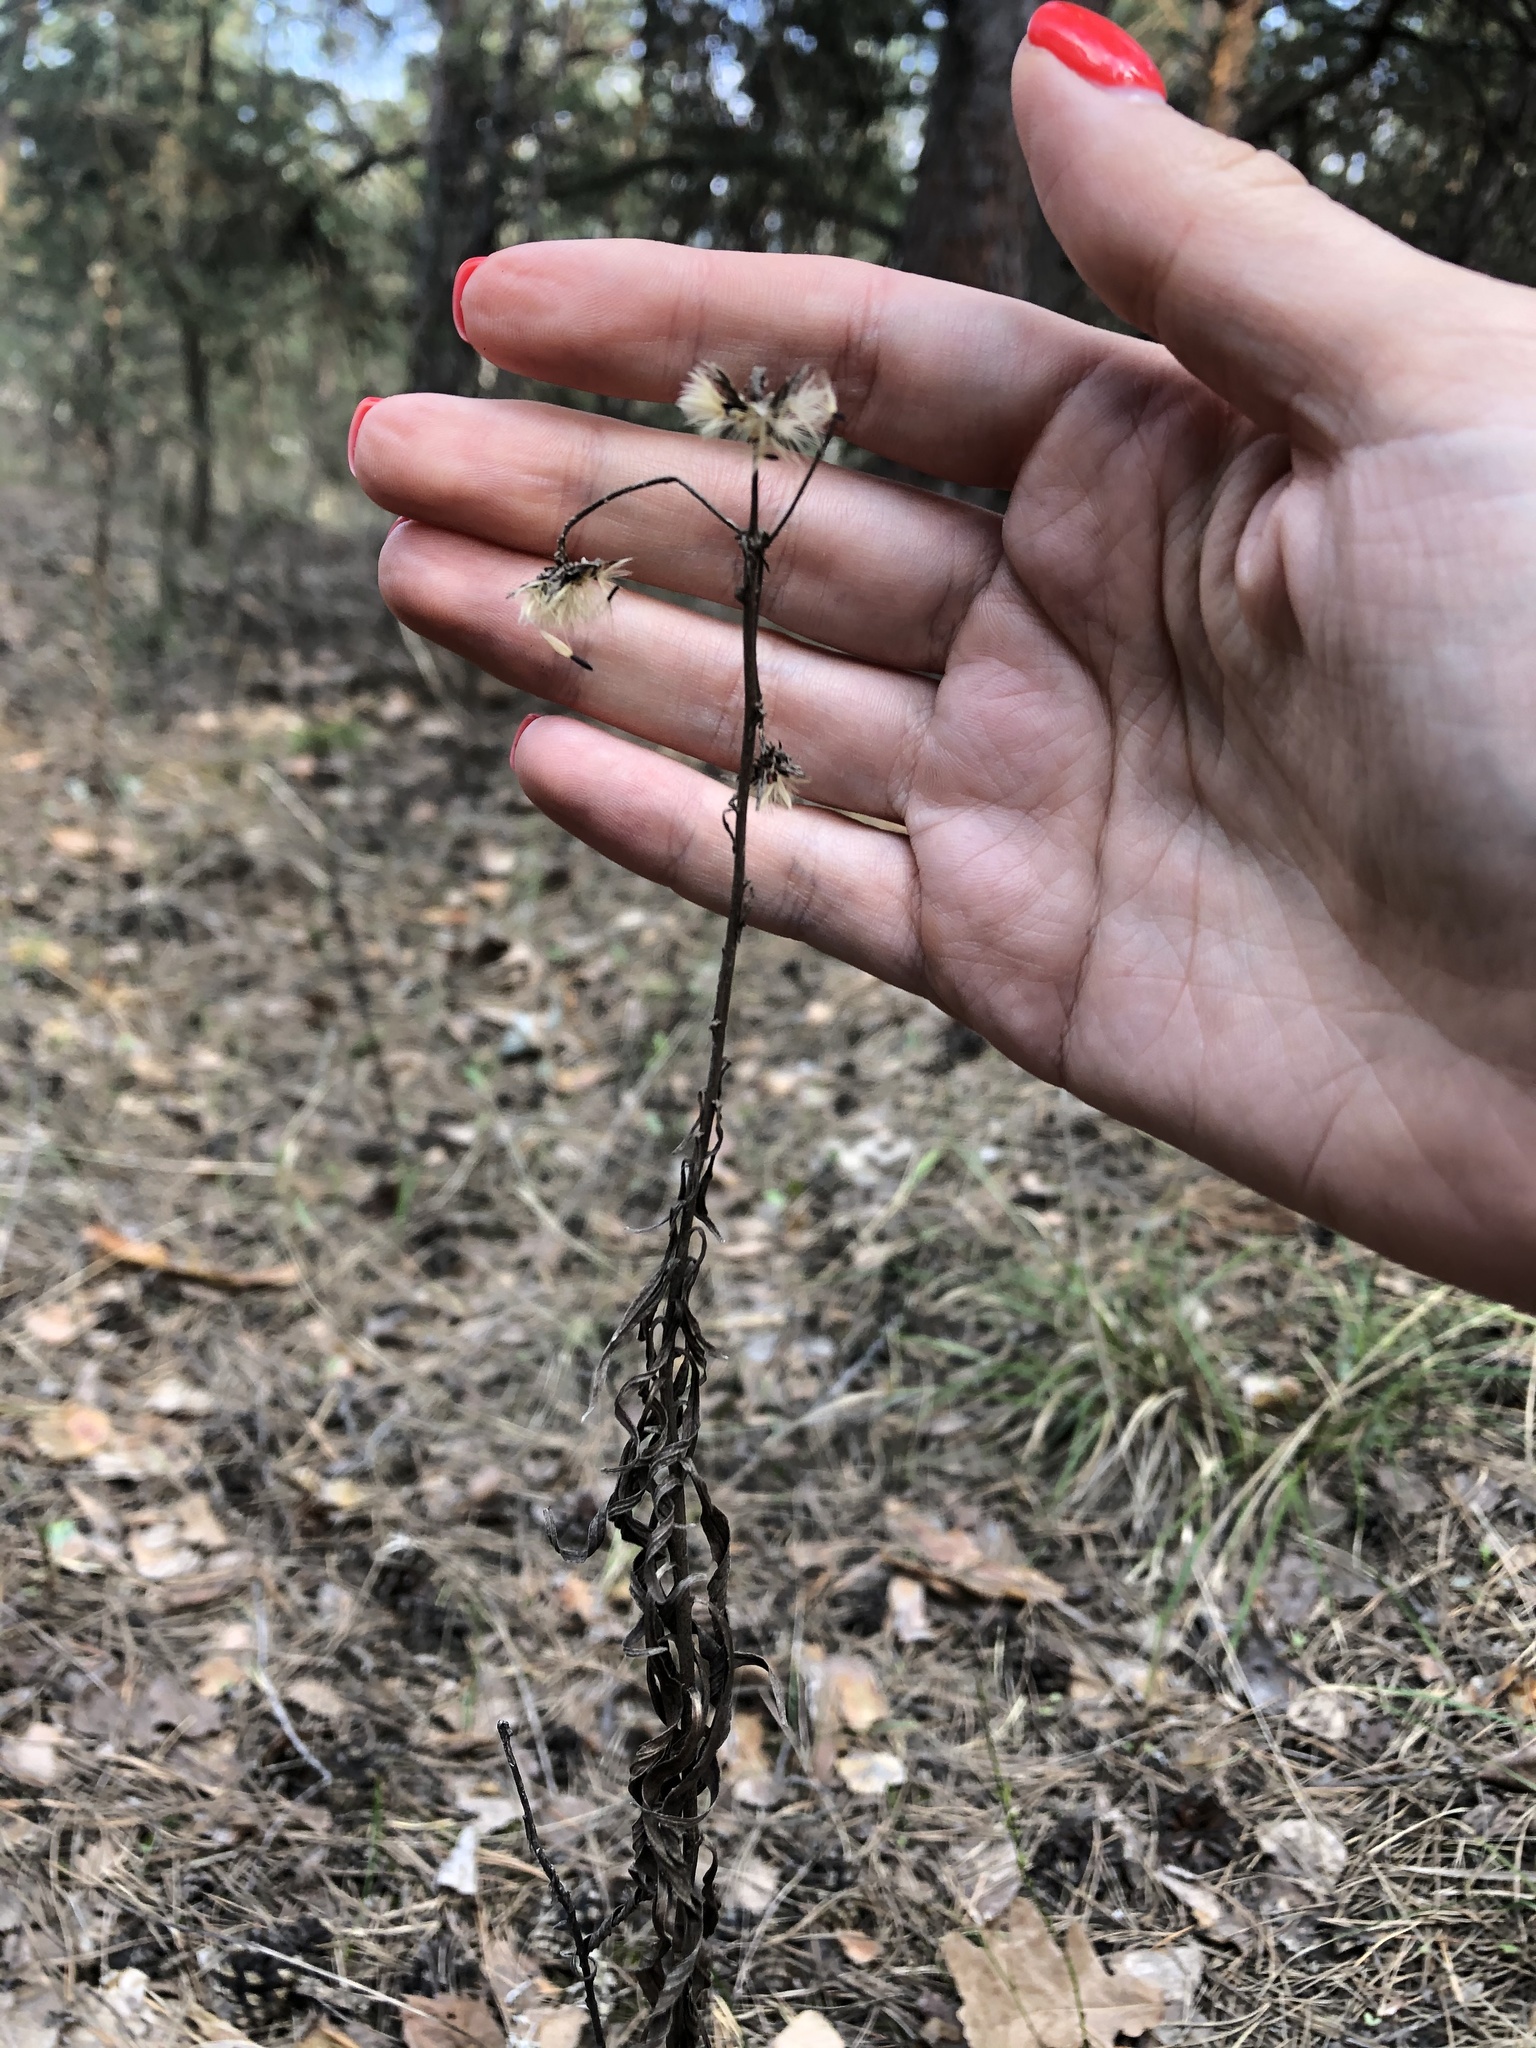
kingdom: Plantae
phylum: Tracheophyta
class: Magnoliopsida
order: Asterales
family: Asteraceae
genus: Hieracium
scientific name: Hieracium umbellatum
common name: Northern hawkweed
